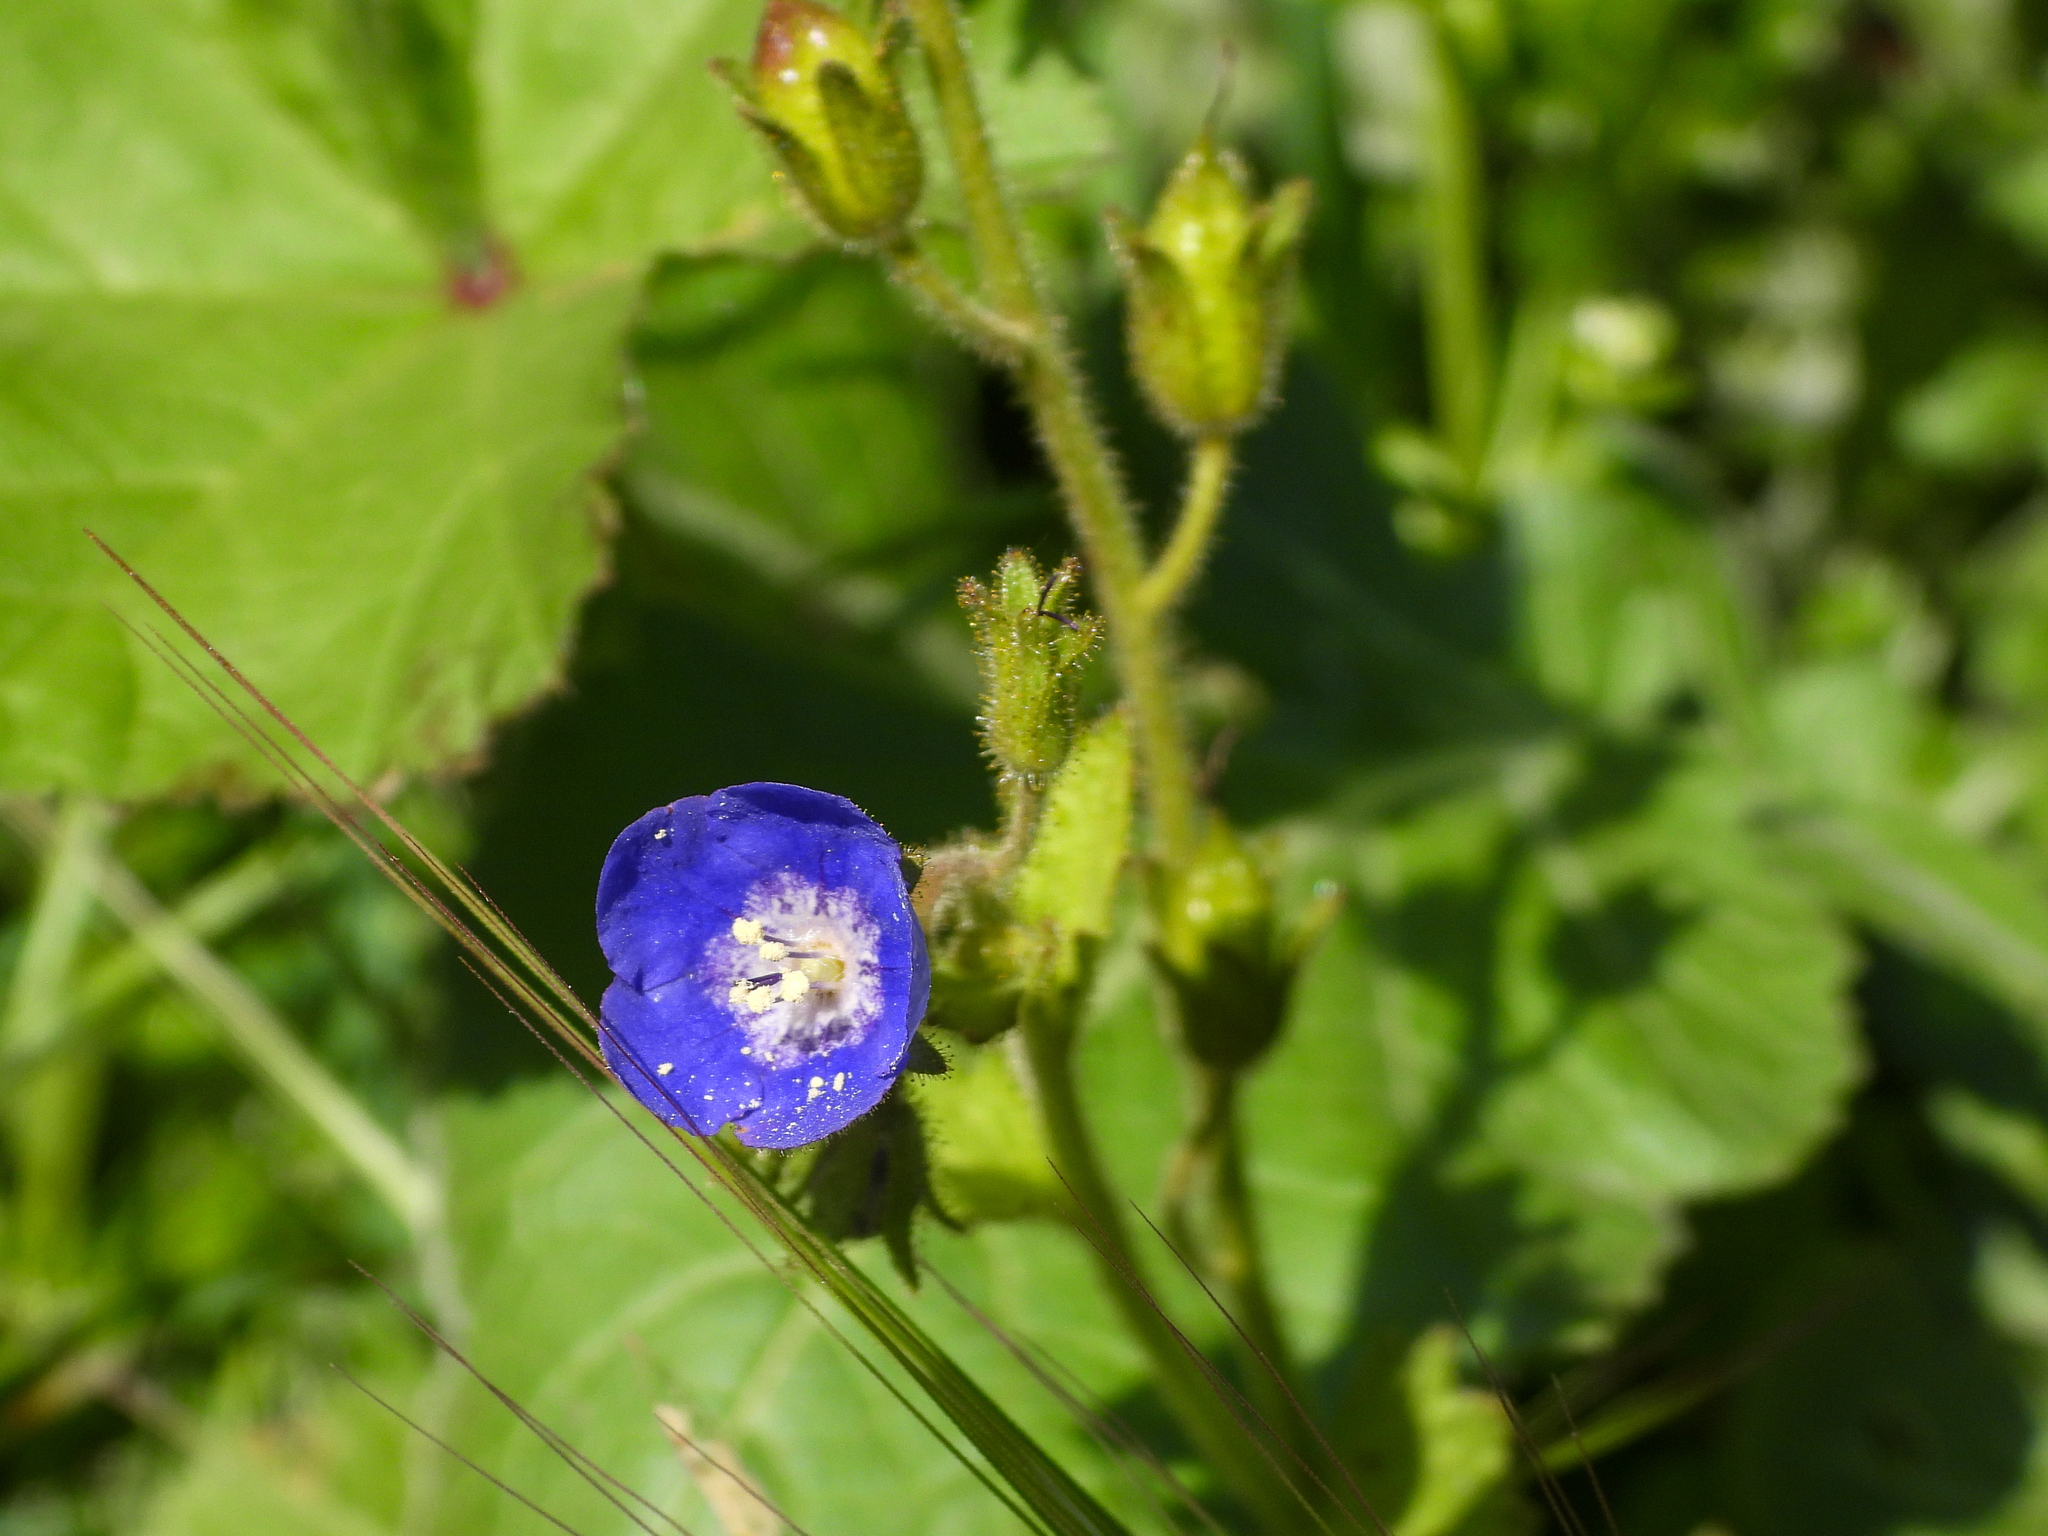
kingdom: Plantae
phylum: Tracheophyta
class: Magnoliopsida
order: Boraginales
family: Hydrophyllaceae
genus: Phacelia
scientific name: Phacelia viscida
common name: Sticky phacelia
